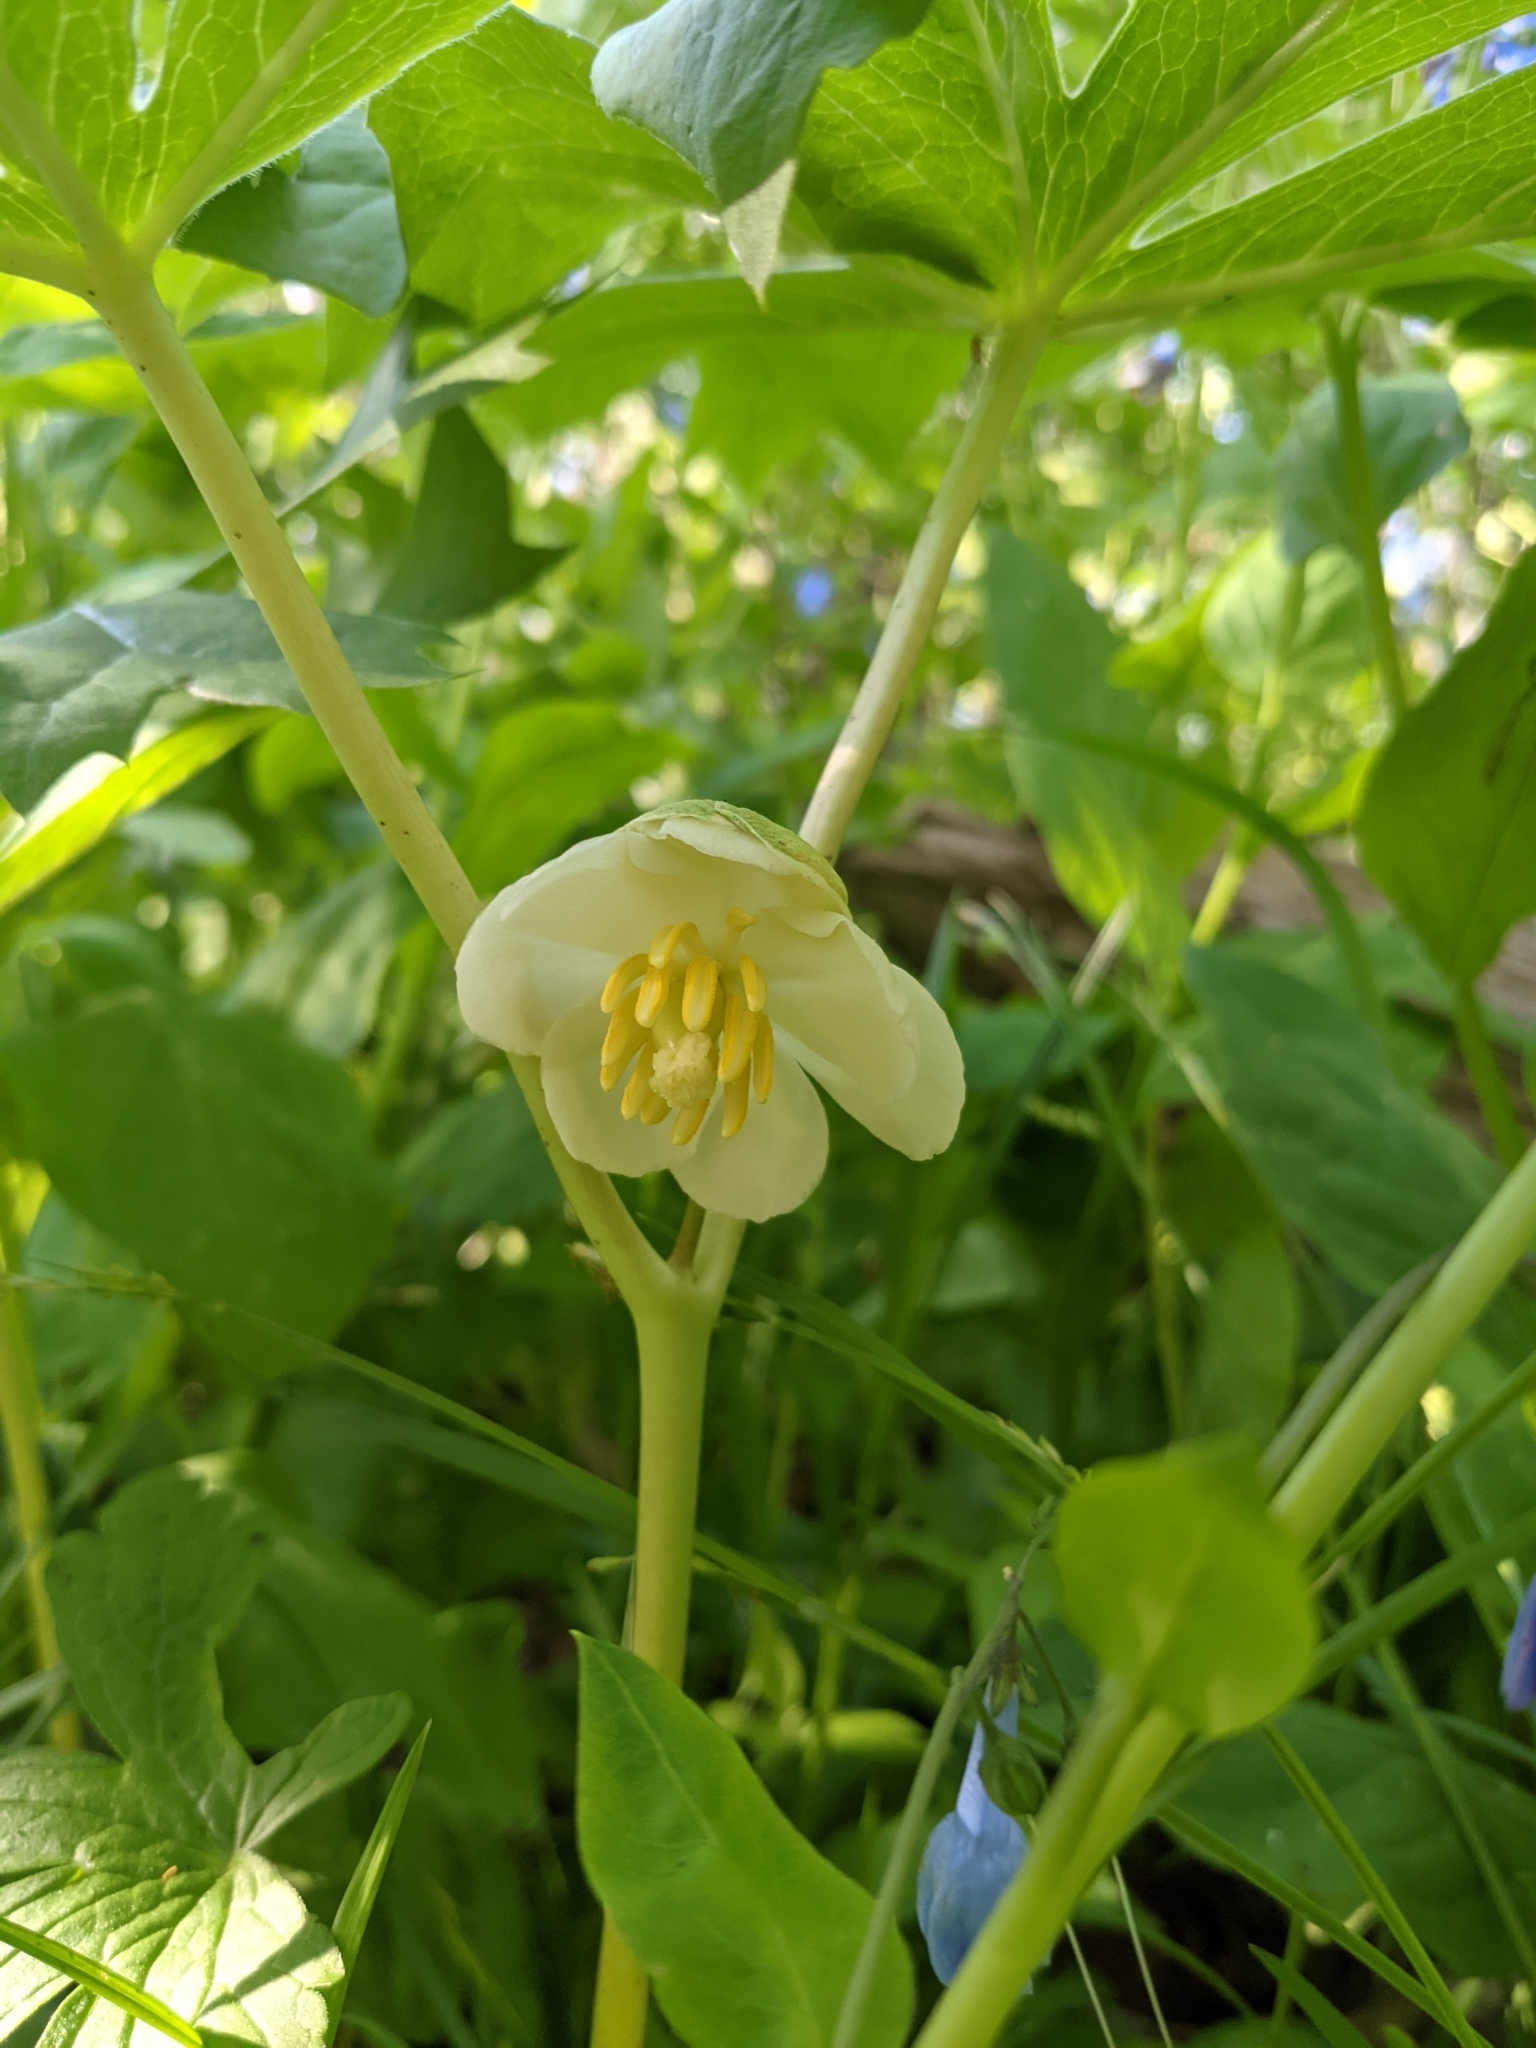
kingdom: Plantae
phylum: Tracheophyta
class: Magnoliopsida
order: Ranunculales
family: Berberidaceae
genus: Podophyllum
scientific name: Podophyllum peltatum
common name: Wild mandrake
